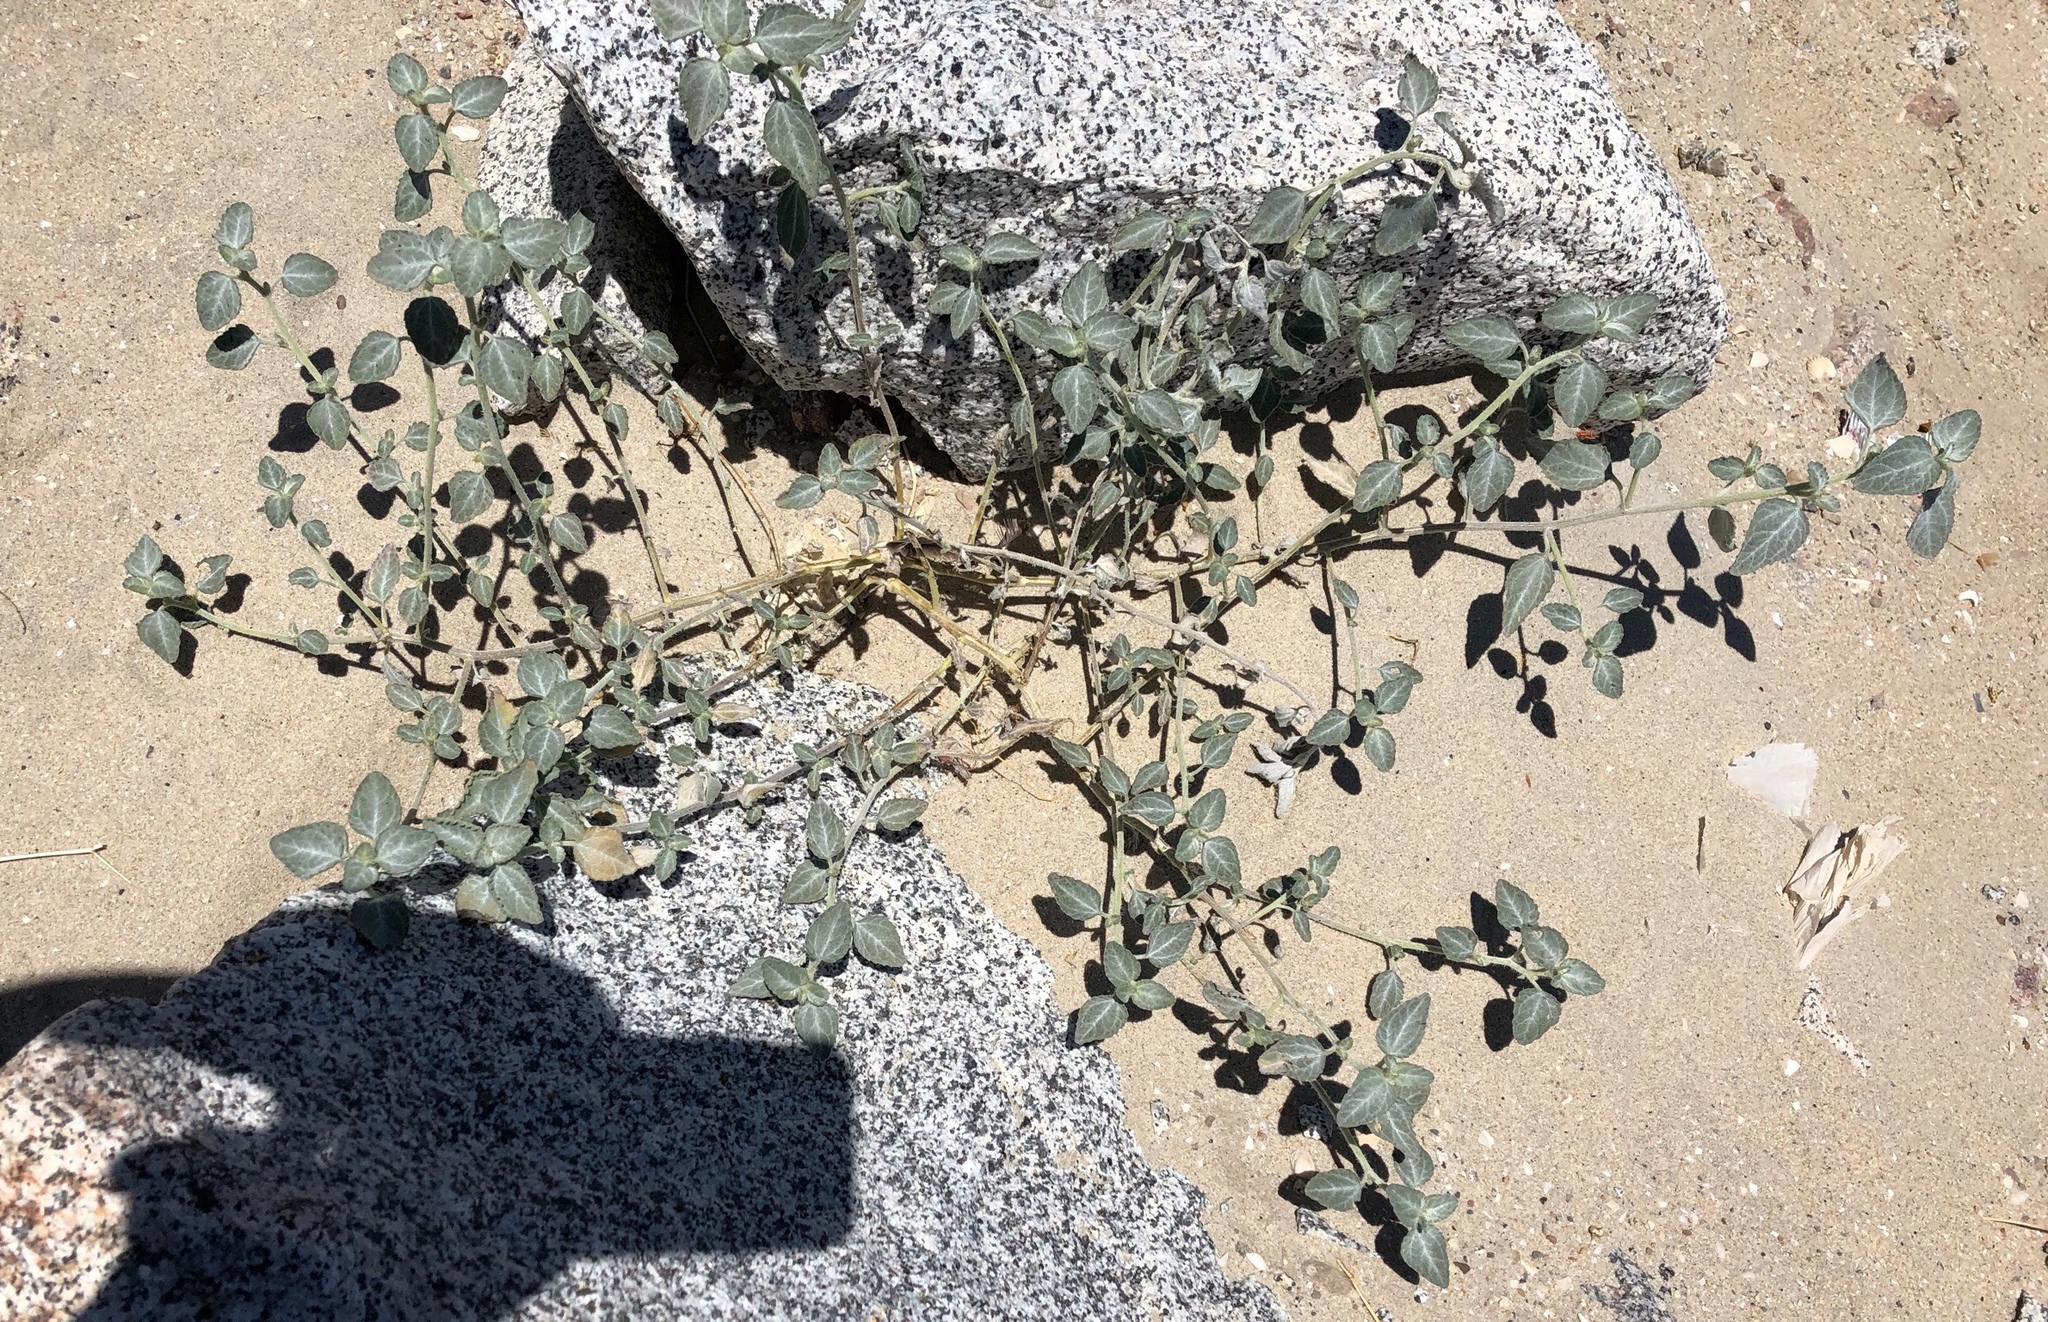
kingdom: Plantae
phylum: Tracheophyta
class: Magnoliopsida
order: Asterales
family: Asteraceae
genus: Dicoria
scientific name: Dicoria canescens
